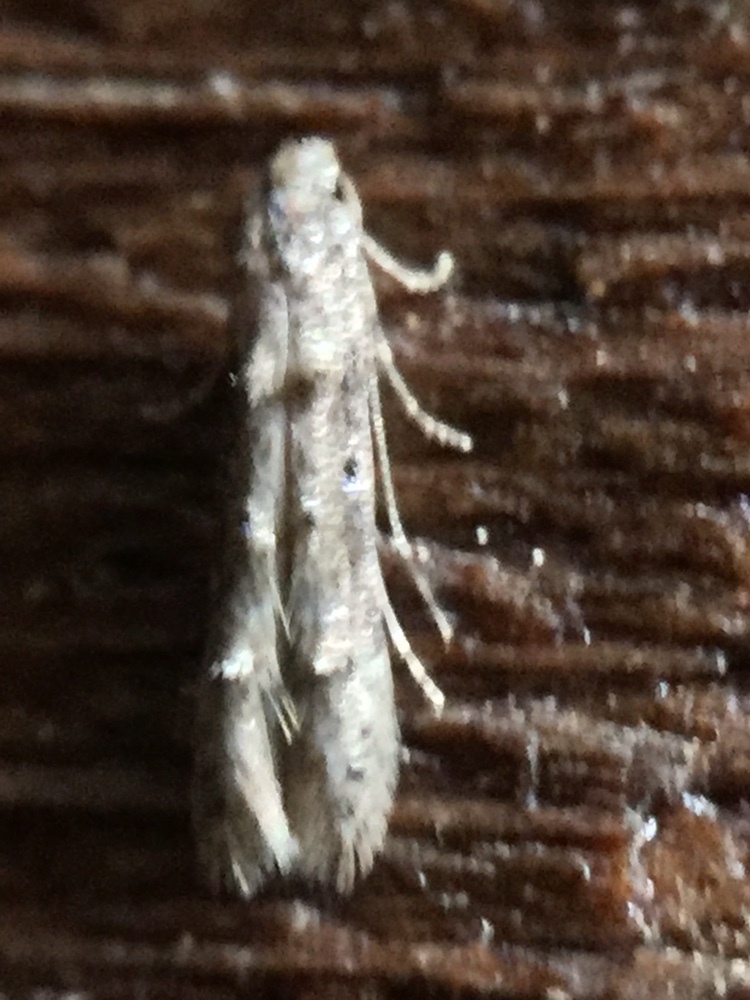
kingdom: Animalia
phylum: Arthropoda
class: Insecta
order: Lepidoptera
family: Elachistidae
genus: Microcolona
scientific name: Microcolona limodes
